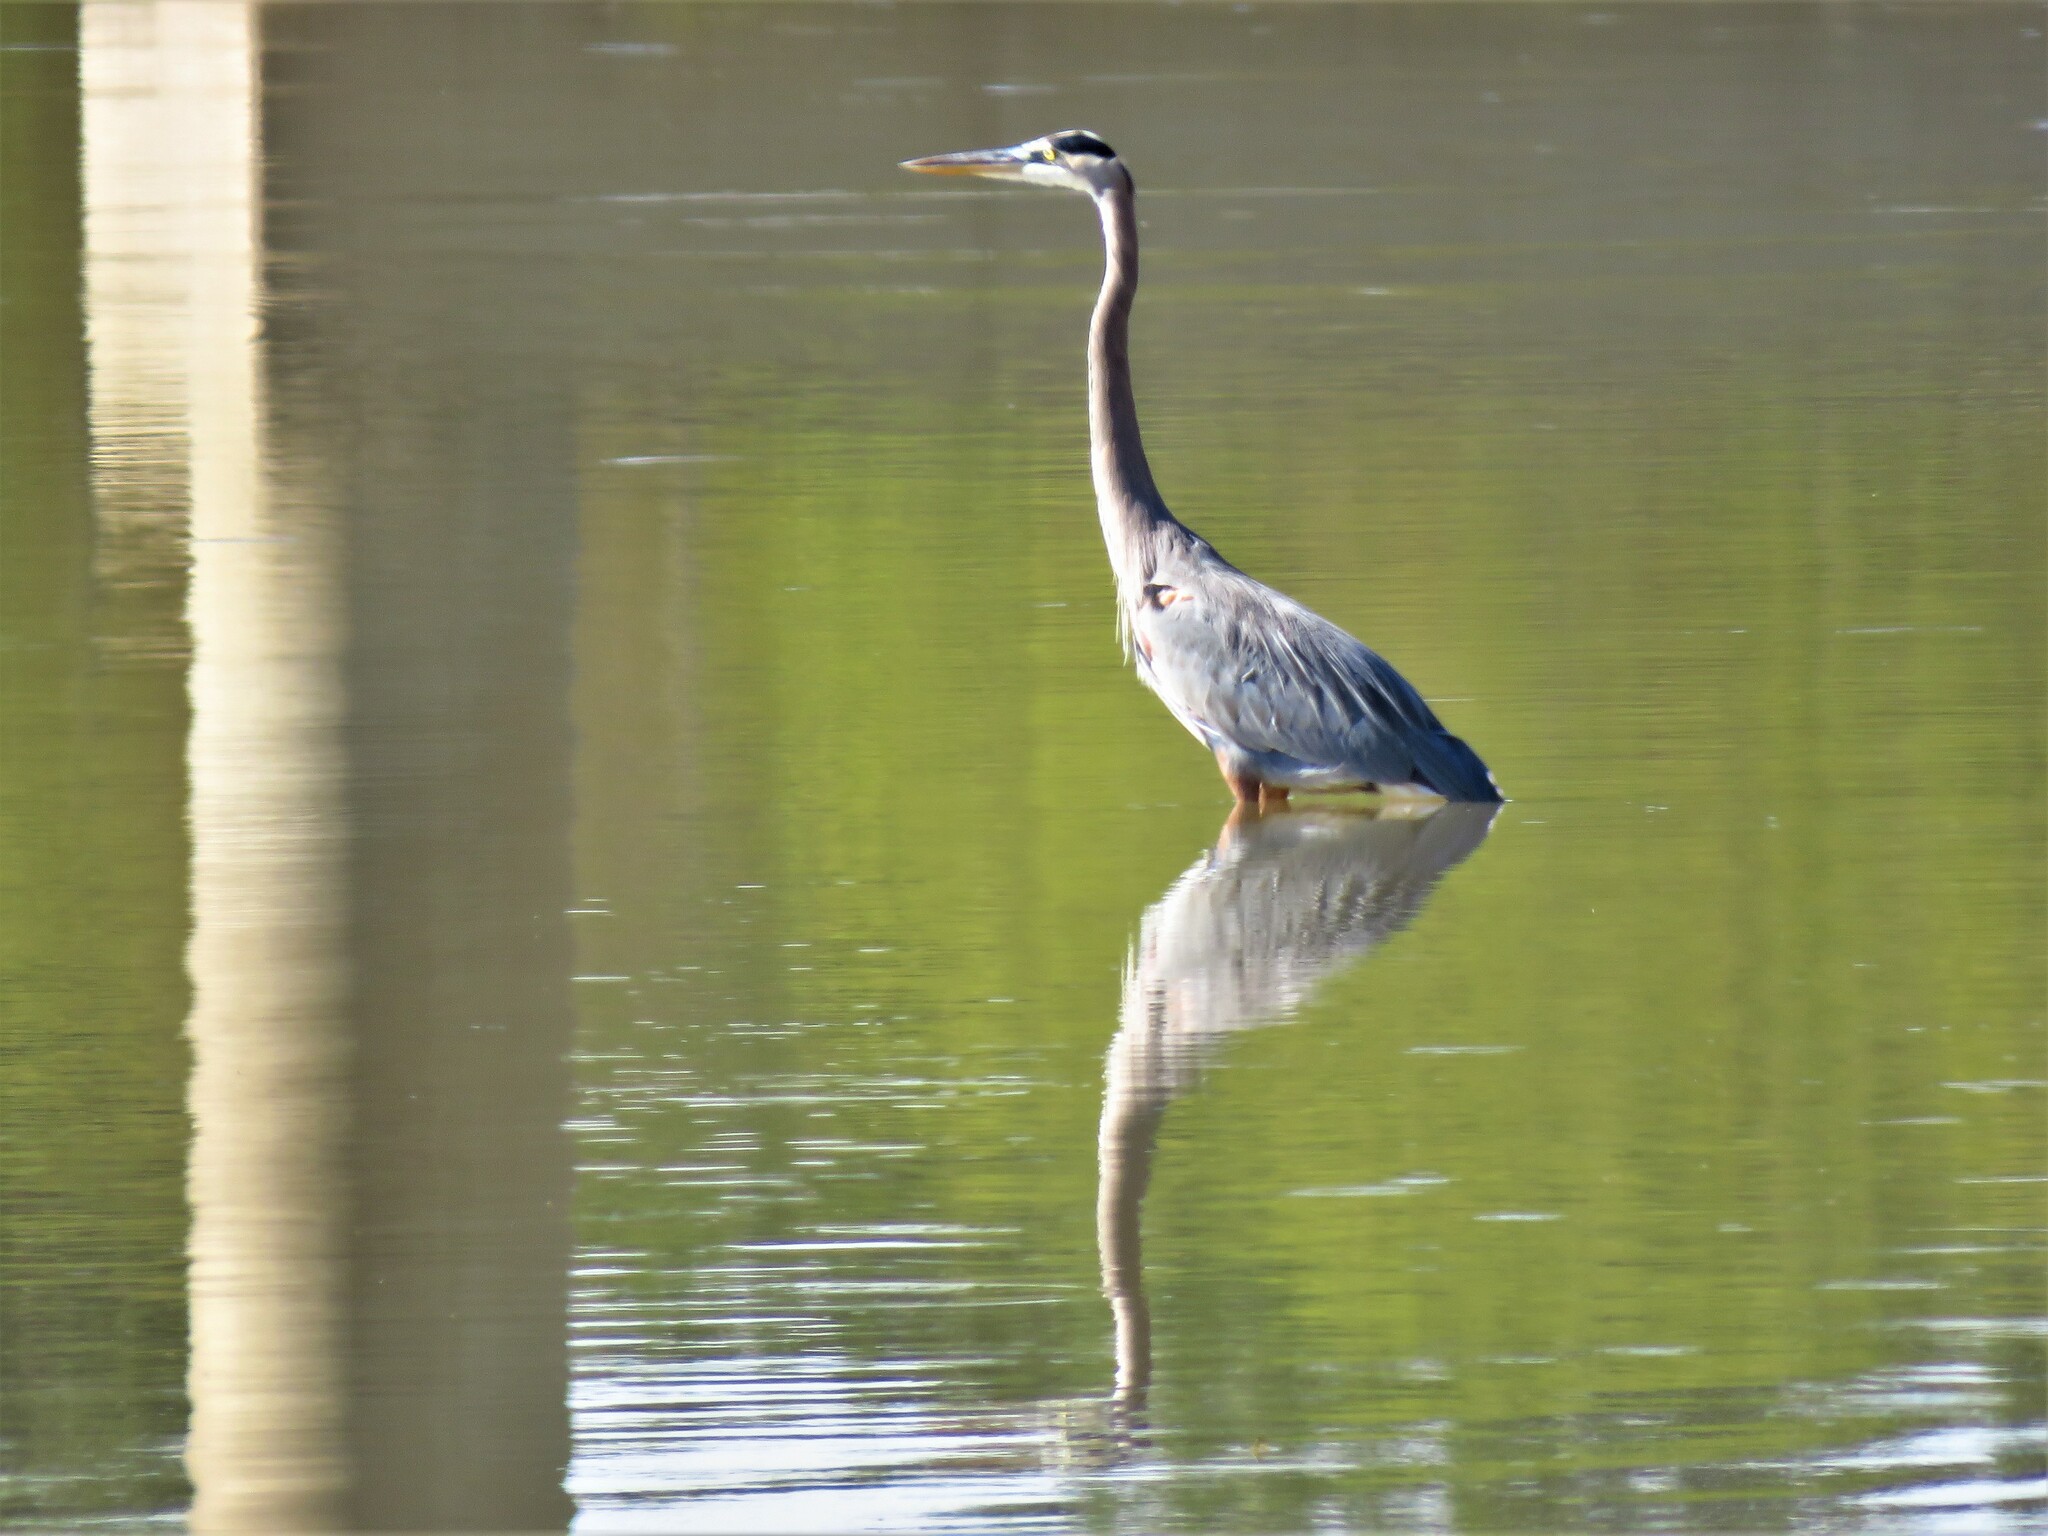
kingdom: Animalia
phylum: Chordata
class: Aves
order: Pelecaniformes
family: Ardeidae
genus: Ardea
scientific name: Ardea herodias
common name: Great blue heron
